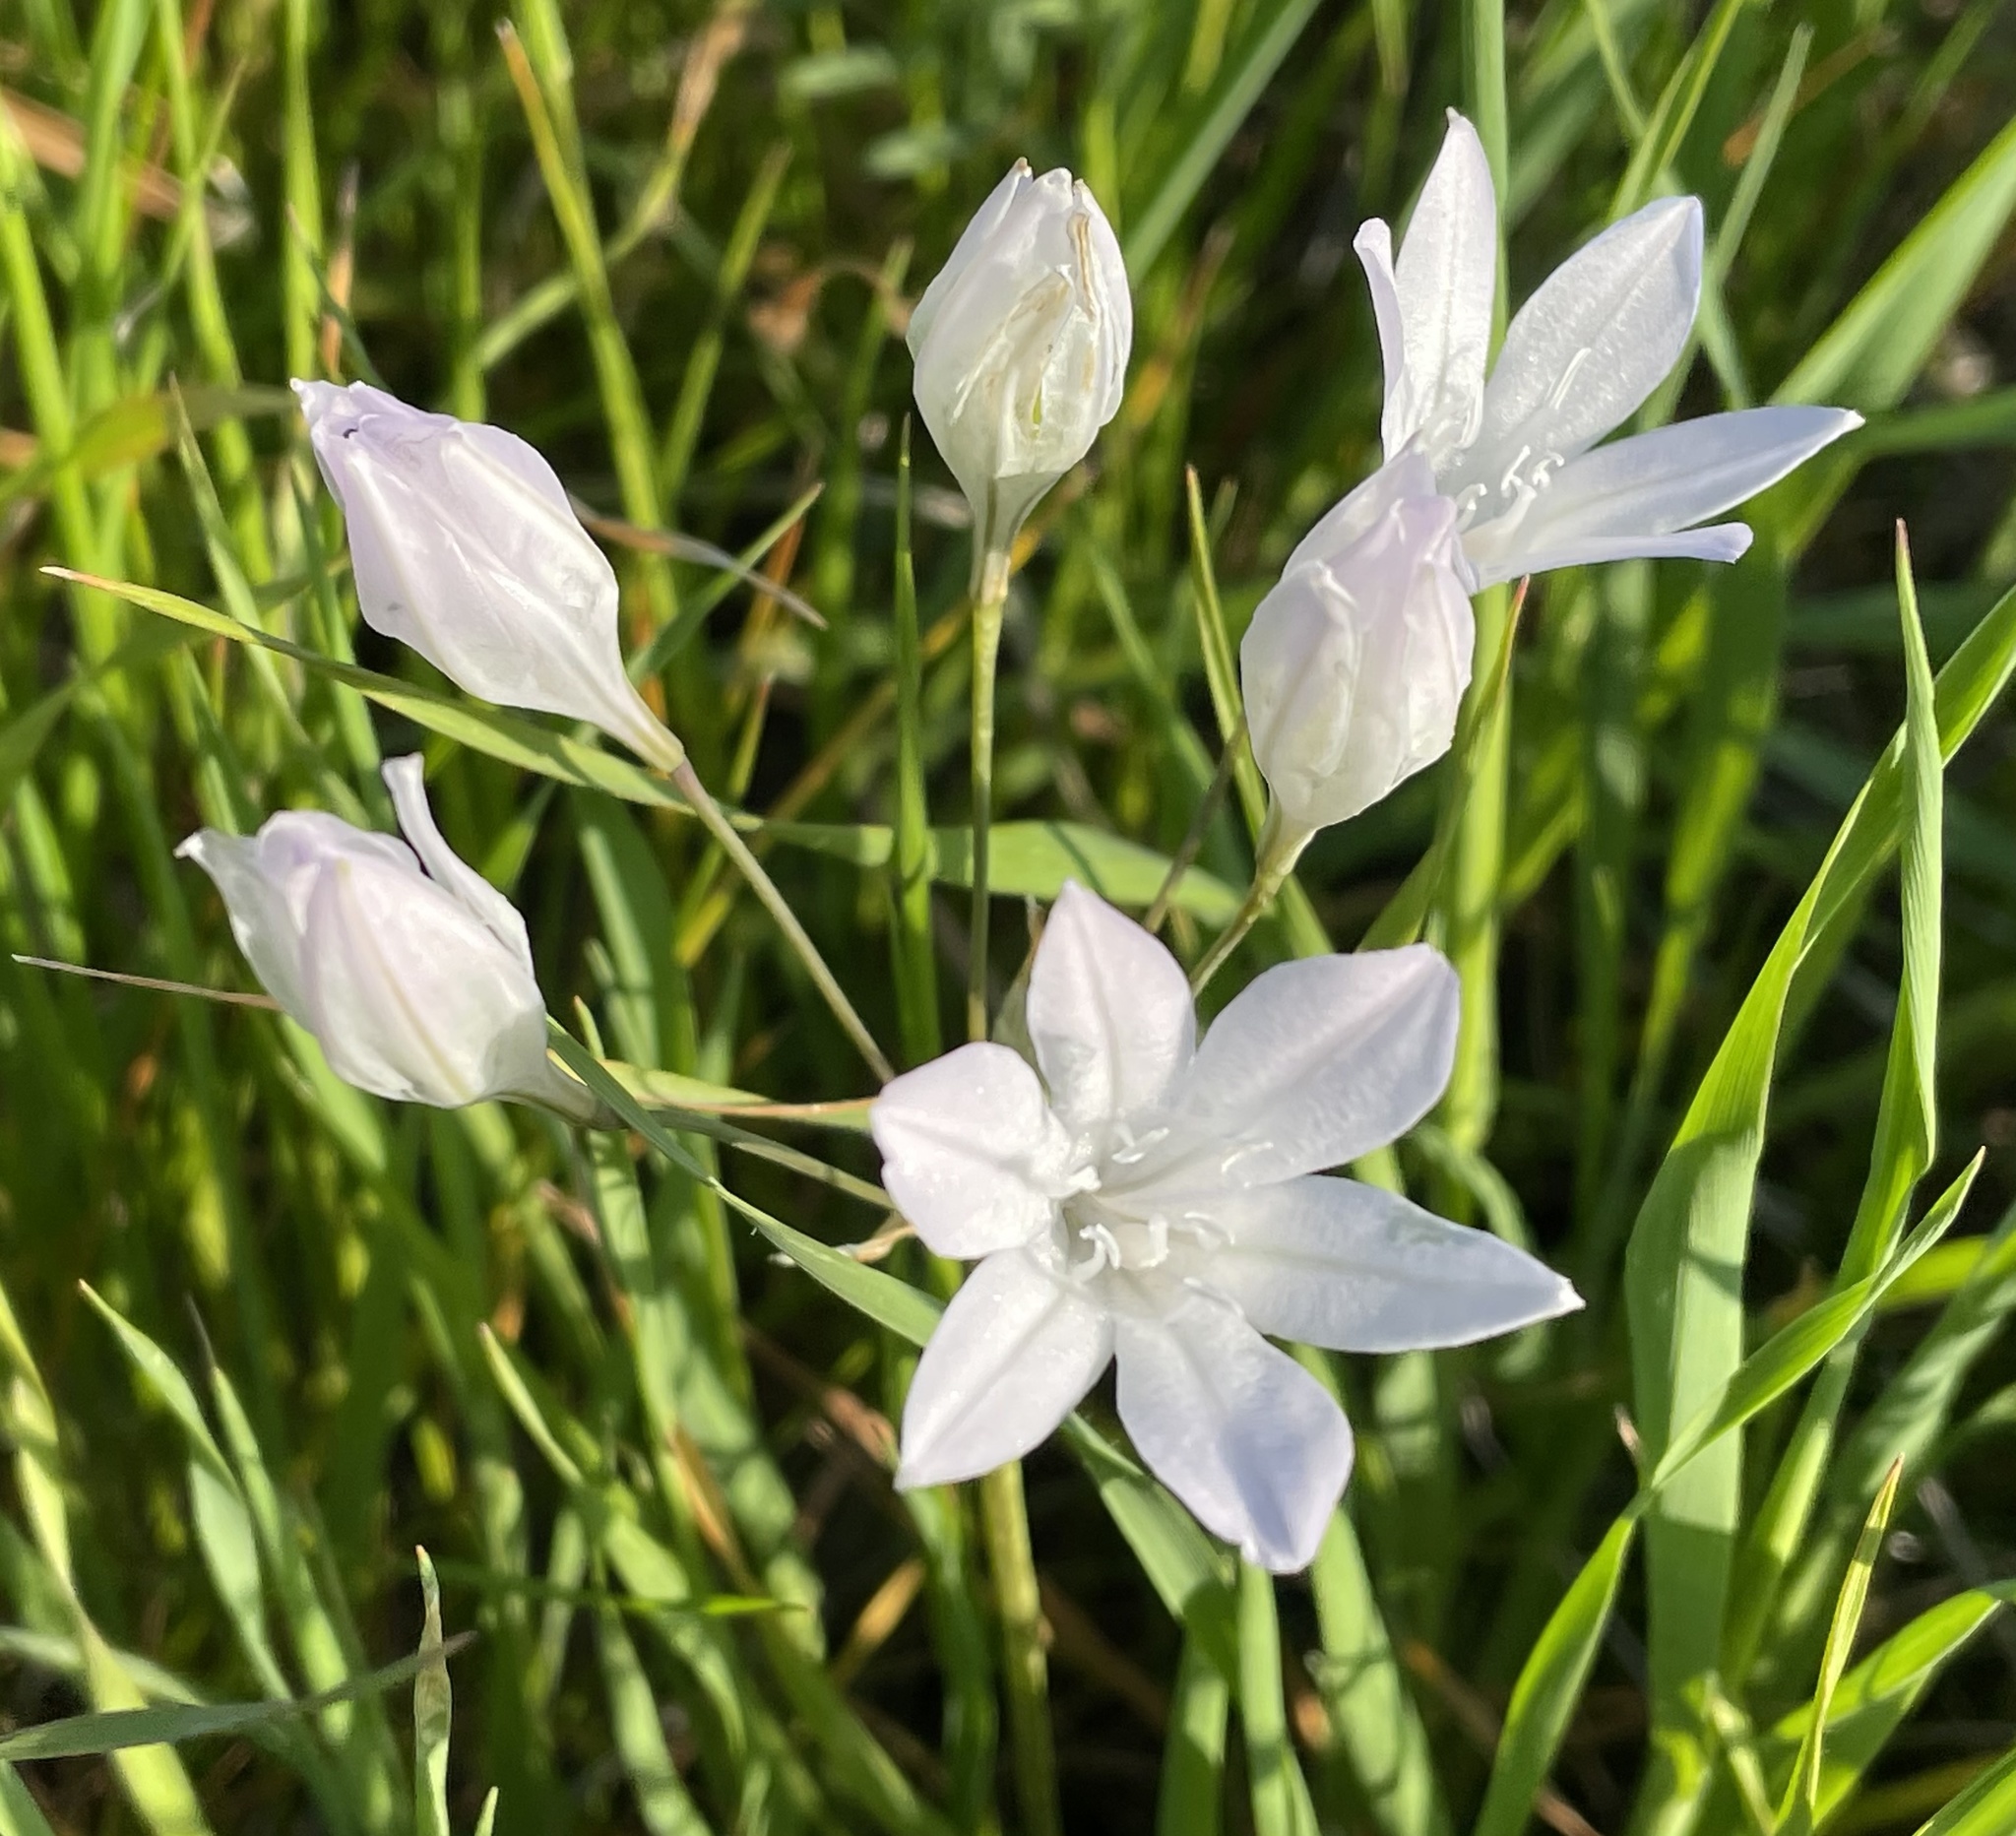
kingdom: Plantae
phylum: Tracheophyta
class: Liliopsida
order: Asparagales
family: Asparagaceae
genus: Triteleia
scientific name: Triteleia laxa
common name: Triplet-lily
